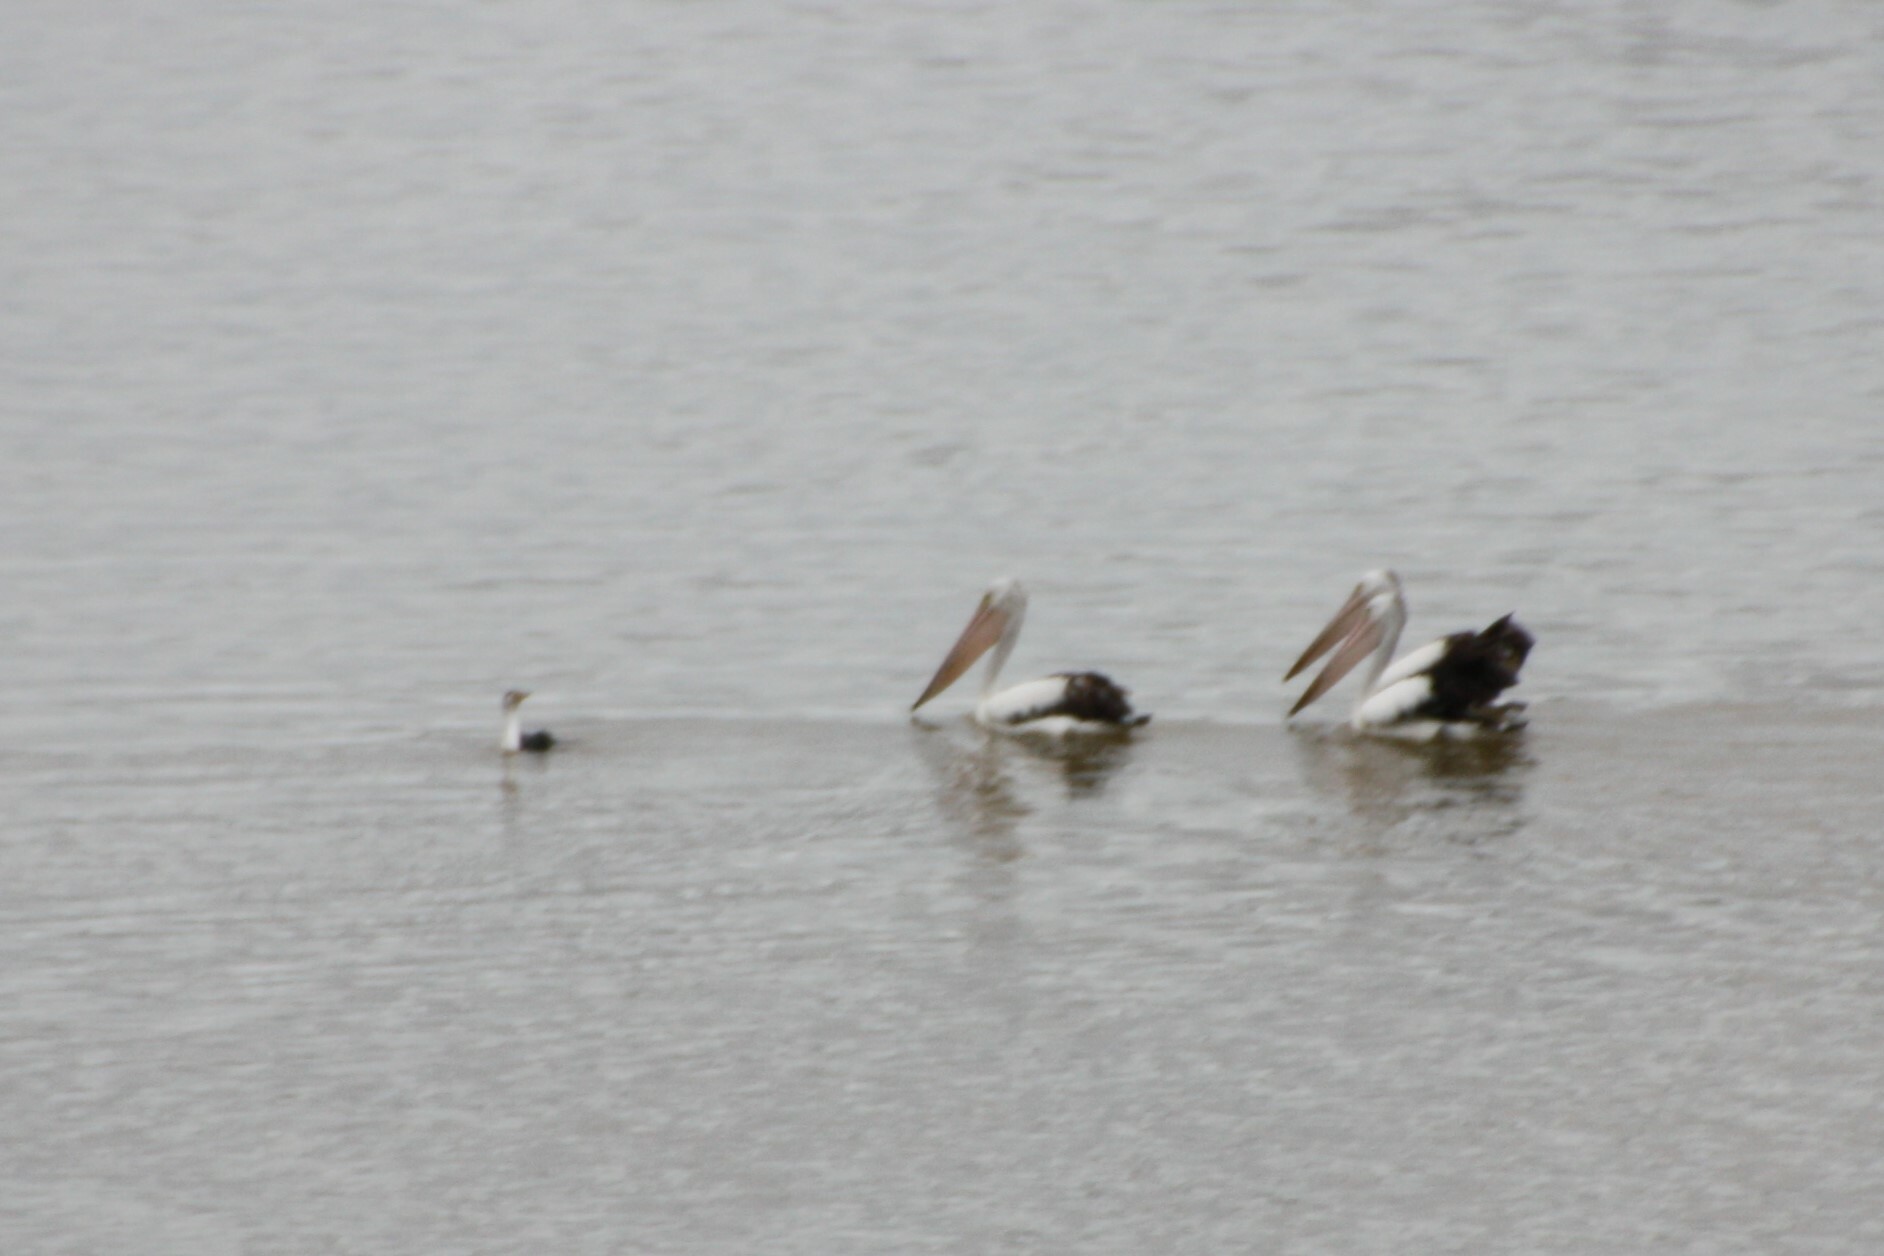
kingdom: Animalia
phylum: Chordata
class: Aves
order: Suliformes
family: Phalacrocoracidae
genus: Phalacrocorax
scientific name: Phalacrocorax varius
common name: Pied cormorant
